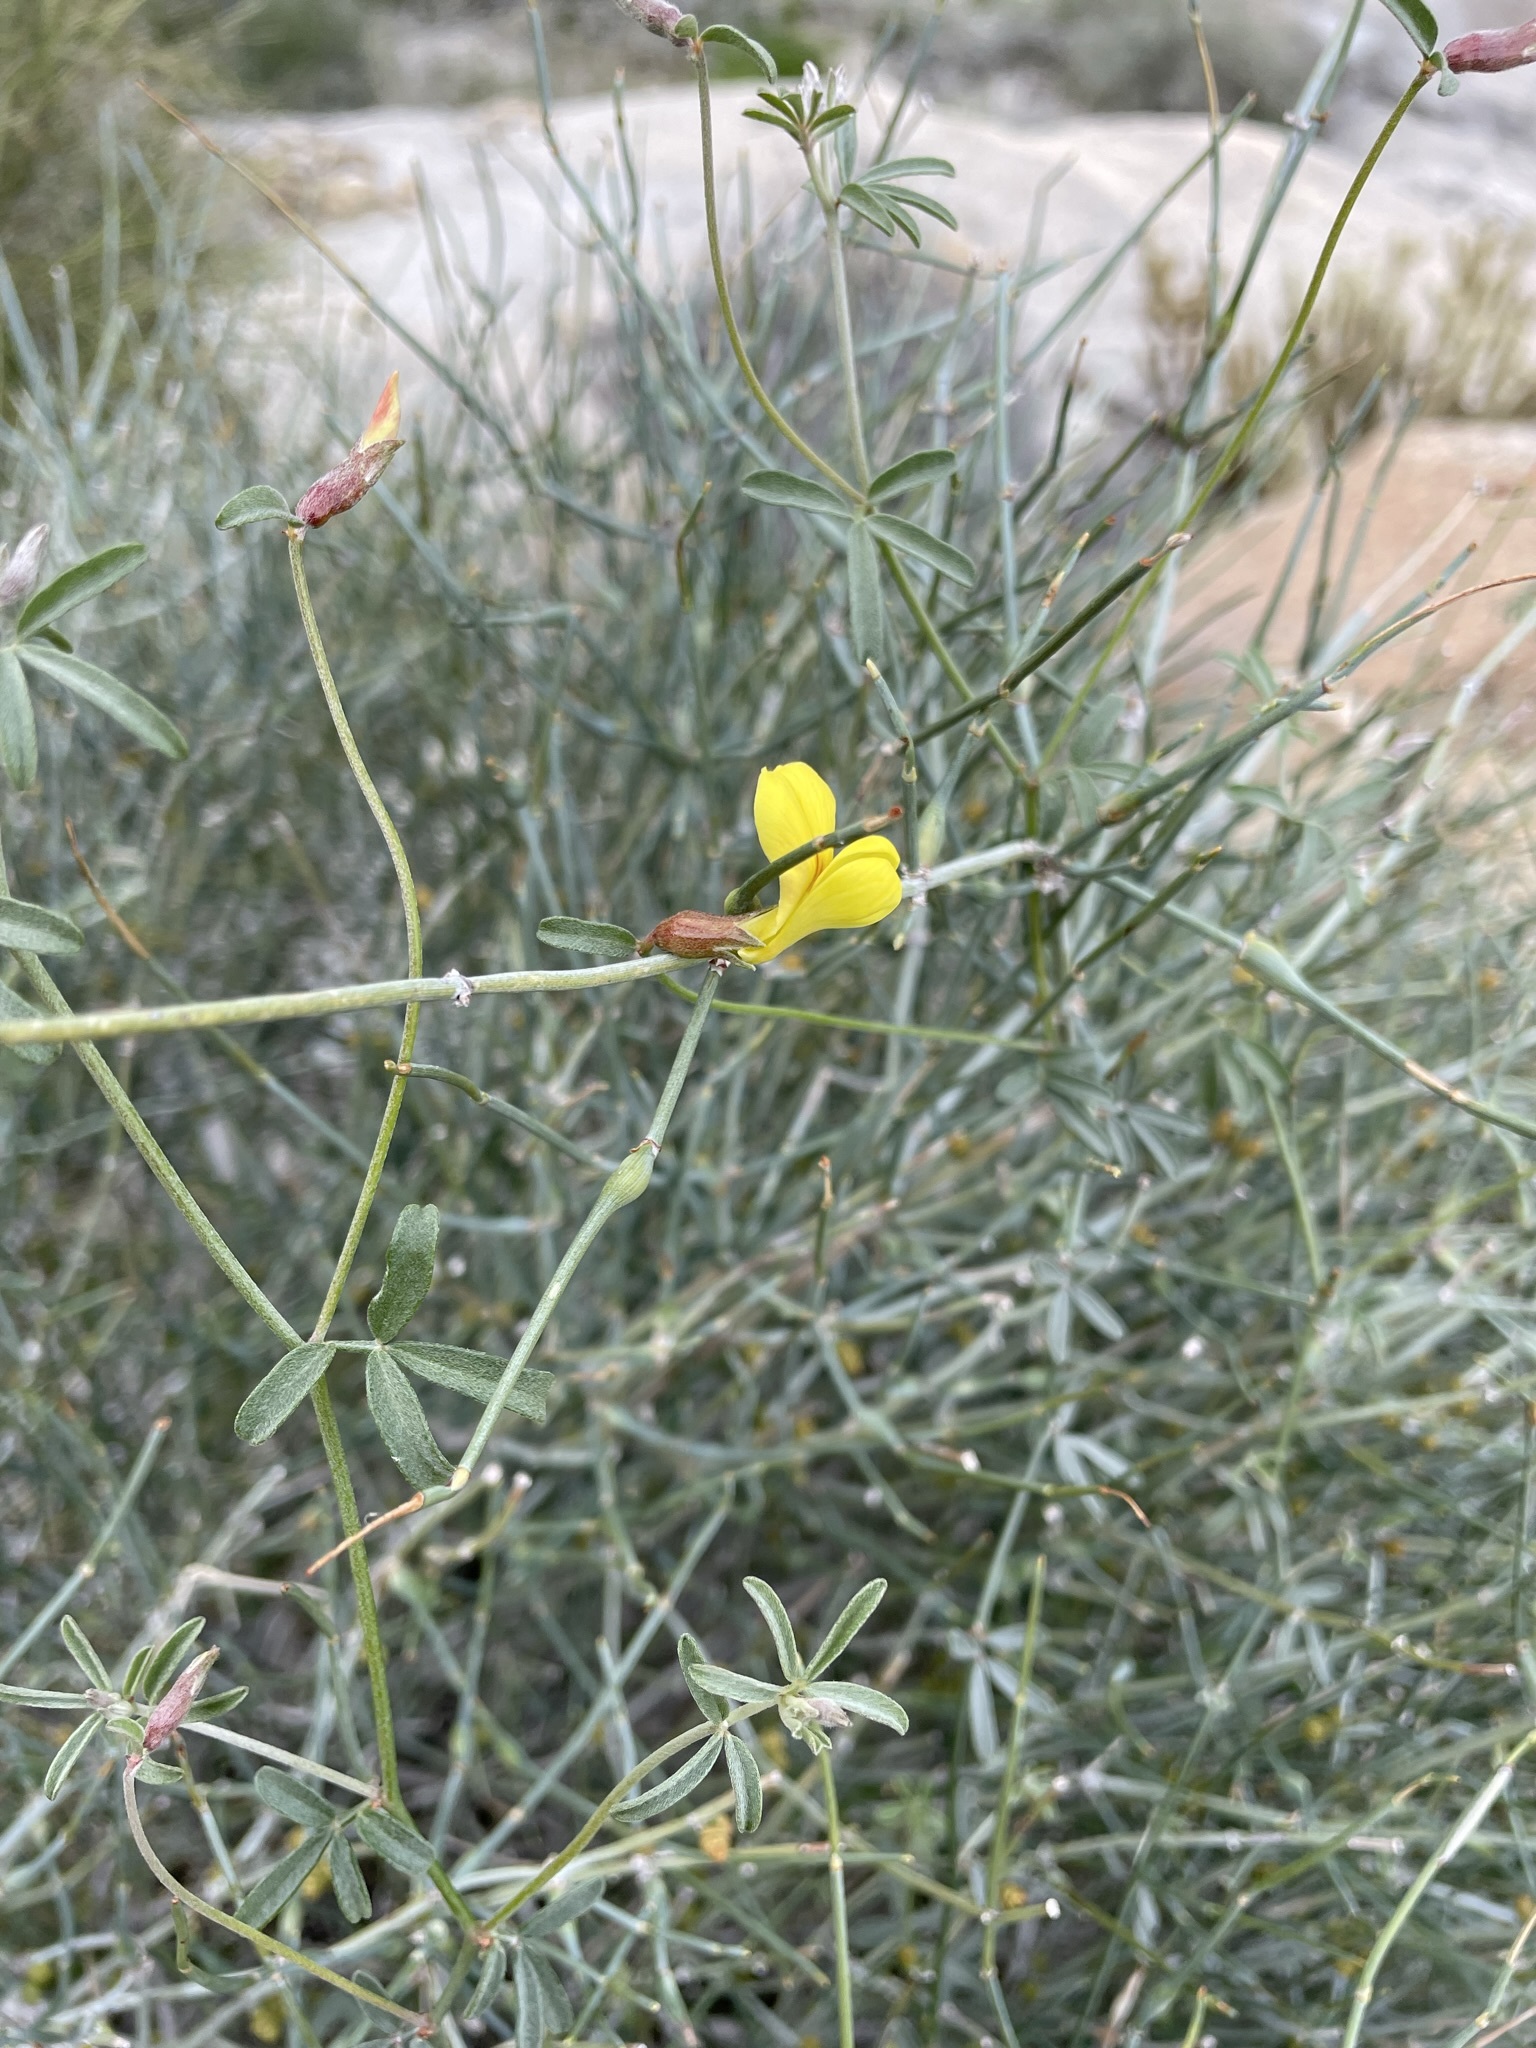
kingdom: Plantae
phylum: Tracheophyta
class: Magnoliopsida
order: Fabales
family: Fabaceae
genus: Acmispon
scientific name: Acmispon rigidus
